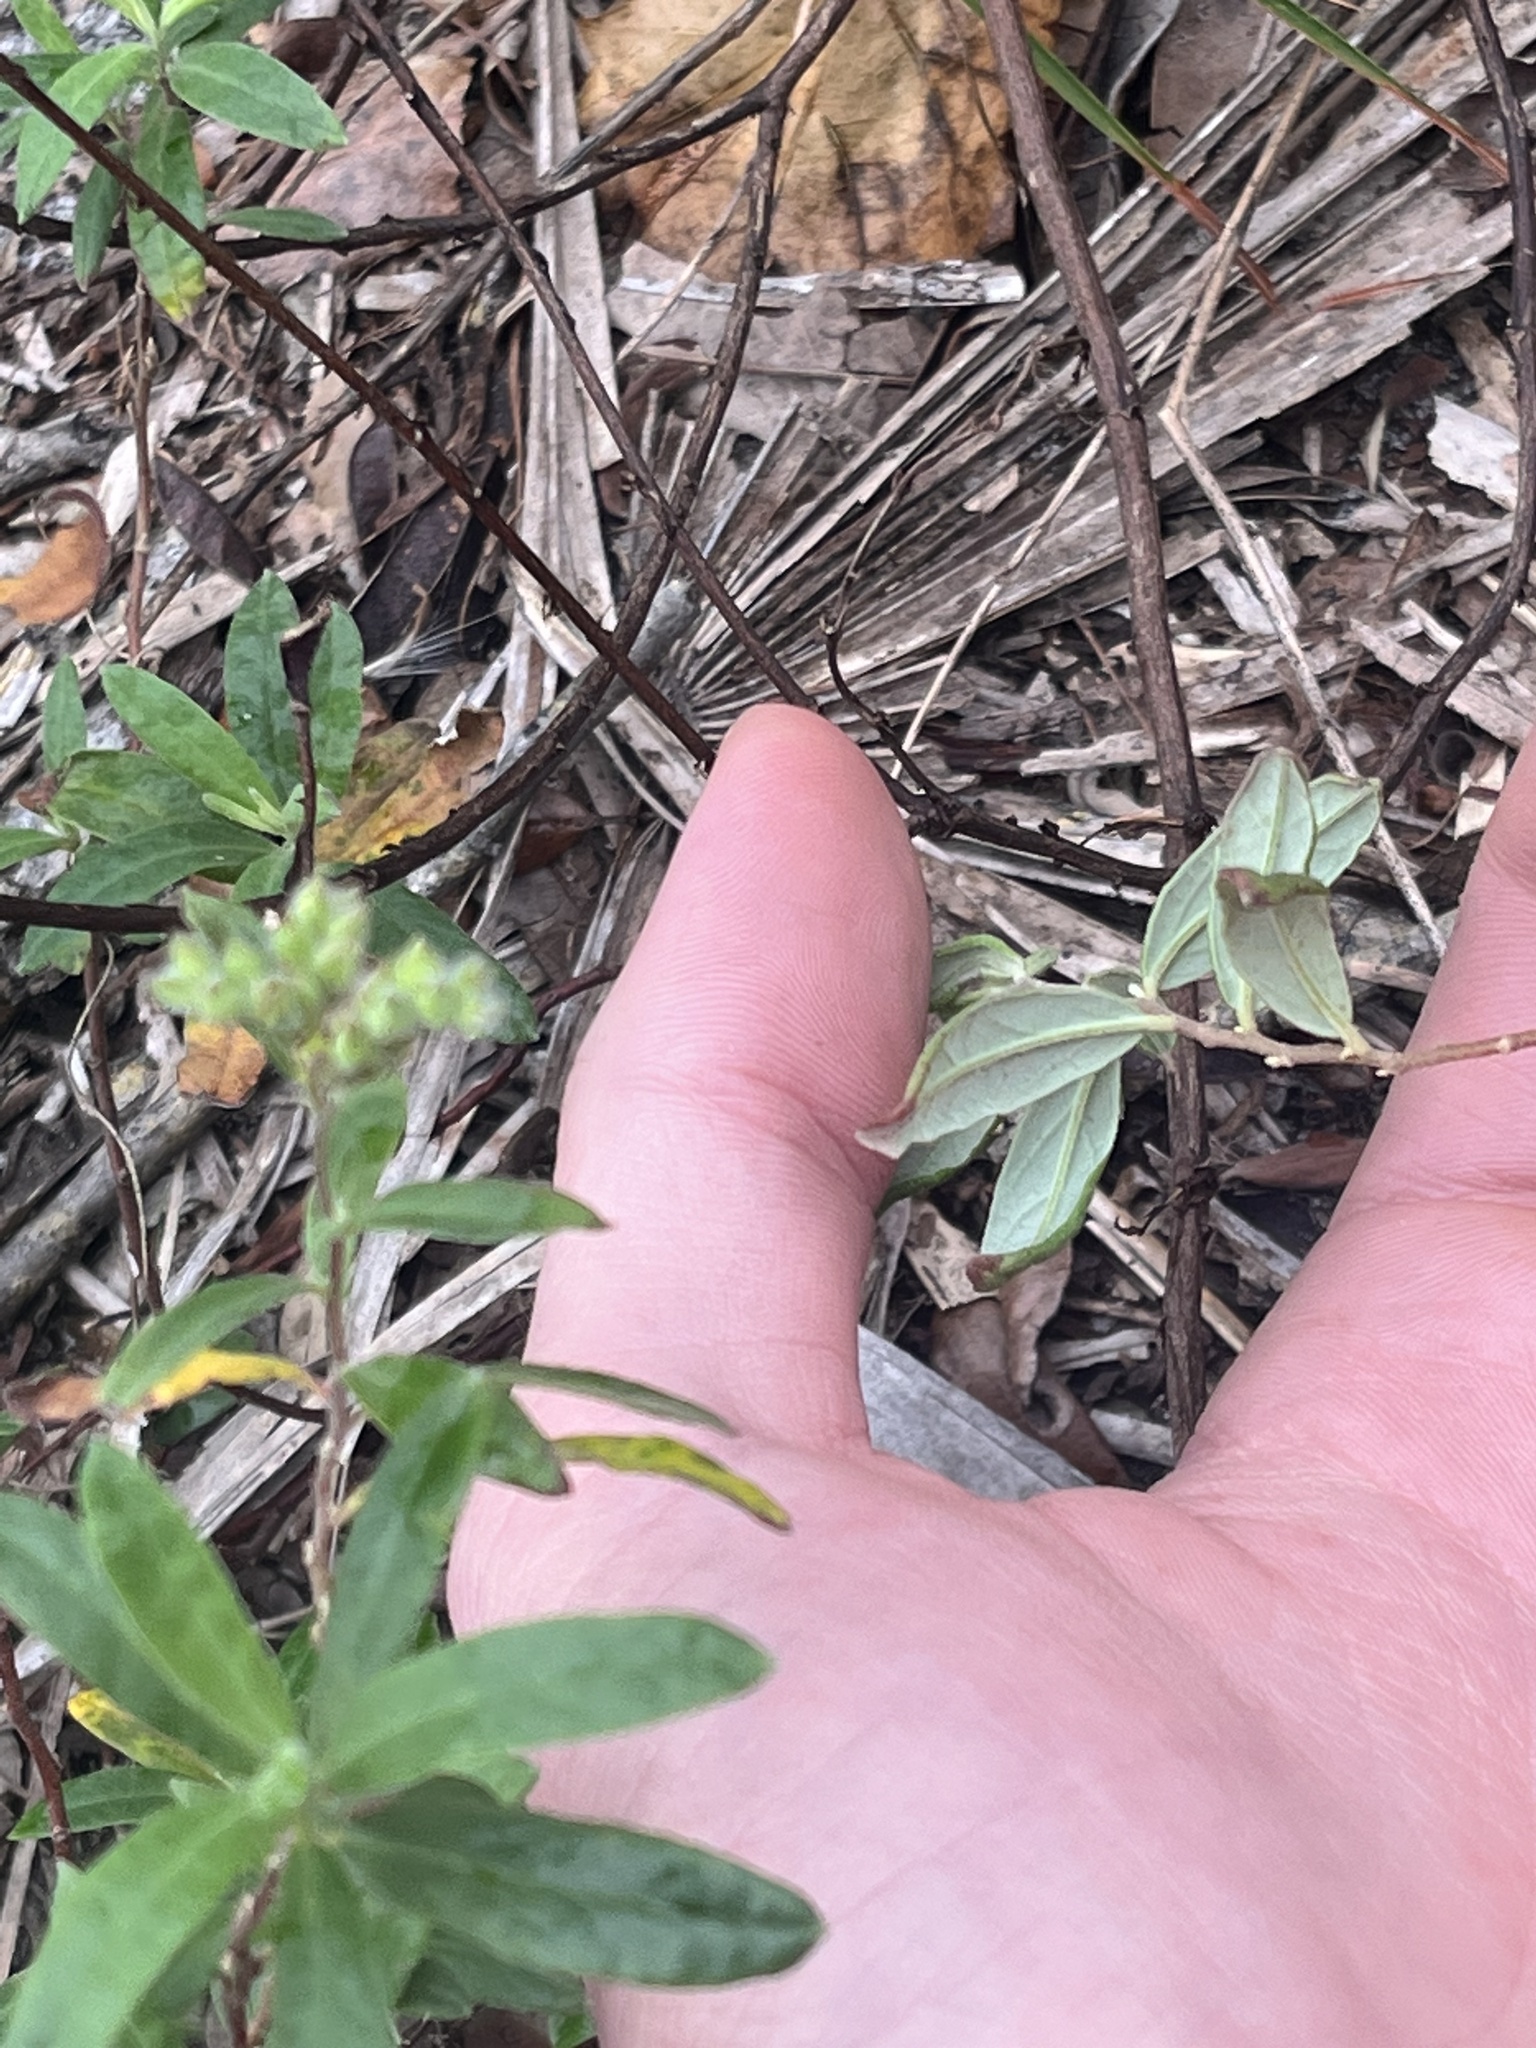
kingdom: Plantae
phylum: Tracheophyta
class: Magnoliopsida
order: Malvales
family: Cistaceae
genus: Crocanthemum
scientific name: Crocanthemum corymbosum
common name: Pinebarren sun-rose
